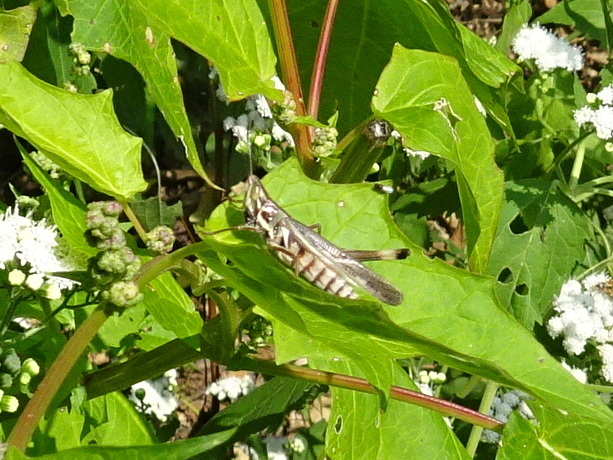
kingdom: Animalia
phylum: Arthropoda
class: Insecta
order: Orthoptera
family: Acrididae
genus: Syrbula
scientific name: Syrbula admirabilis
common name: Handsome grasshopper
